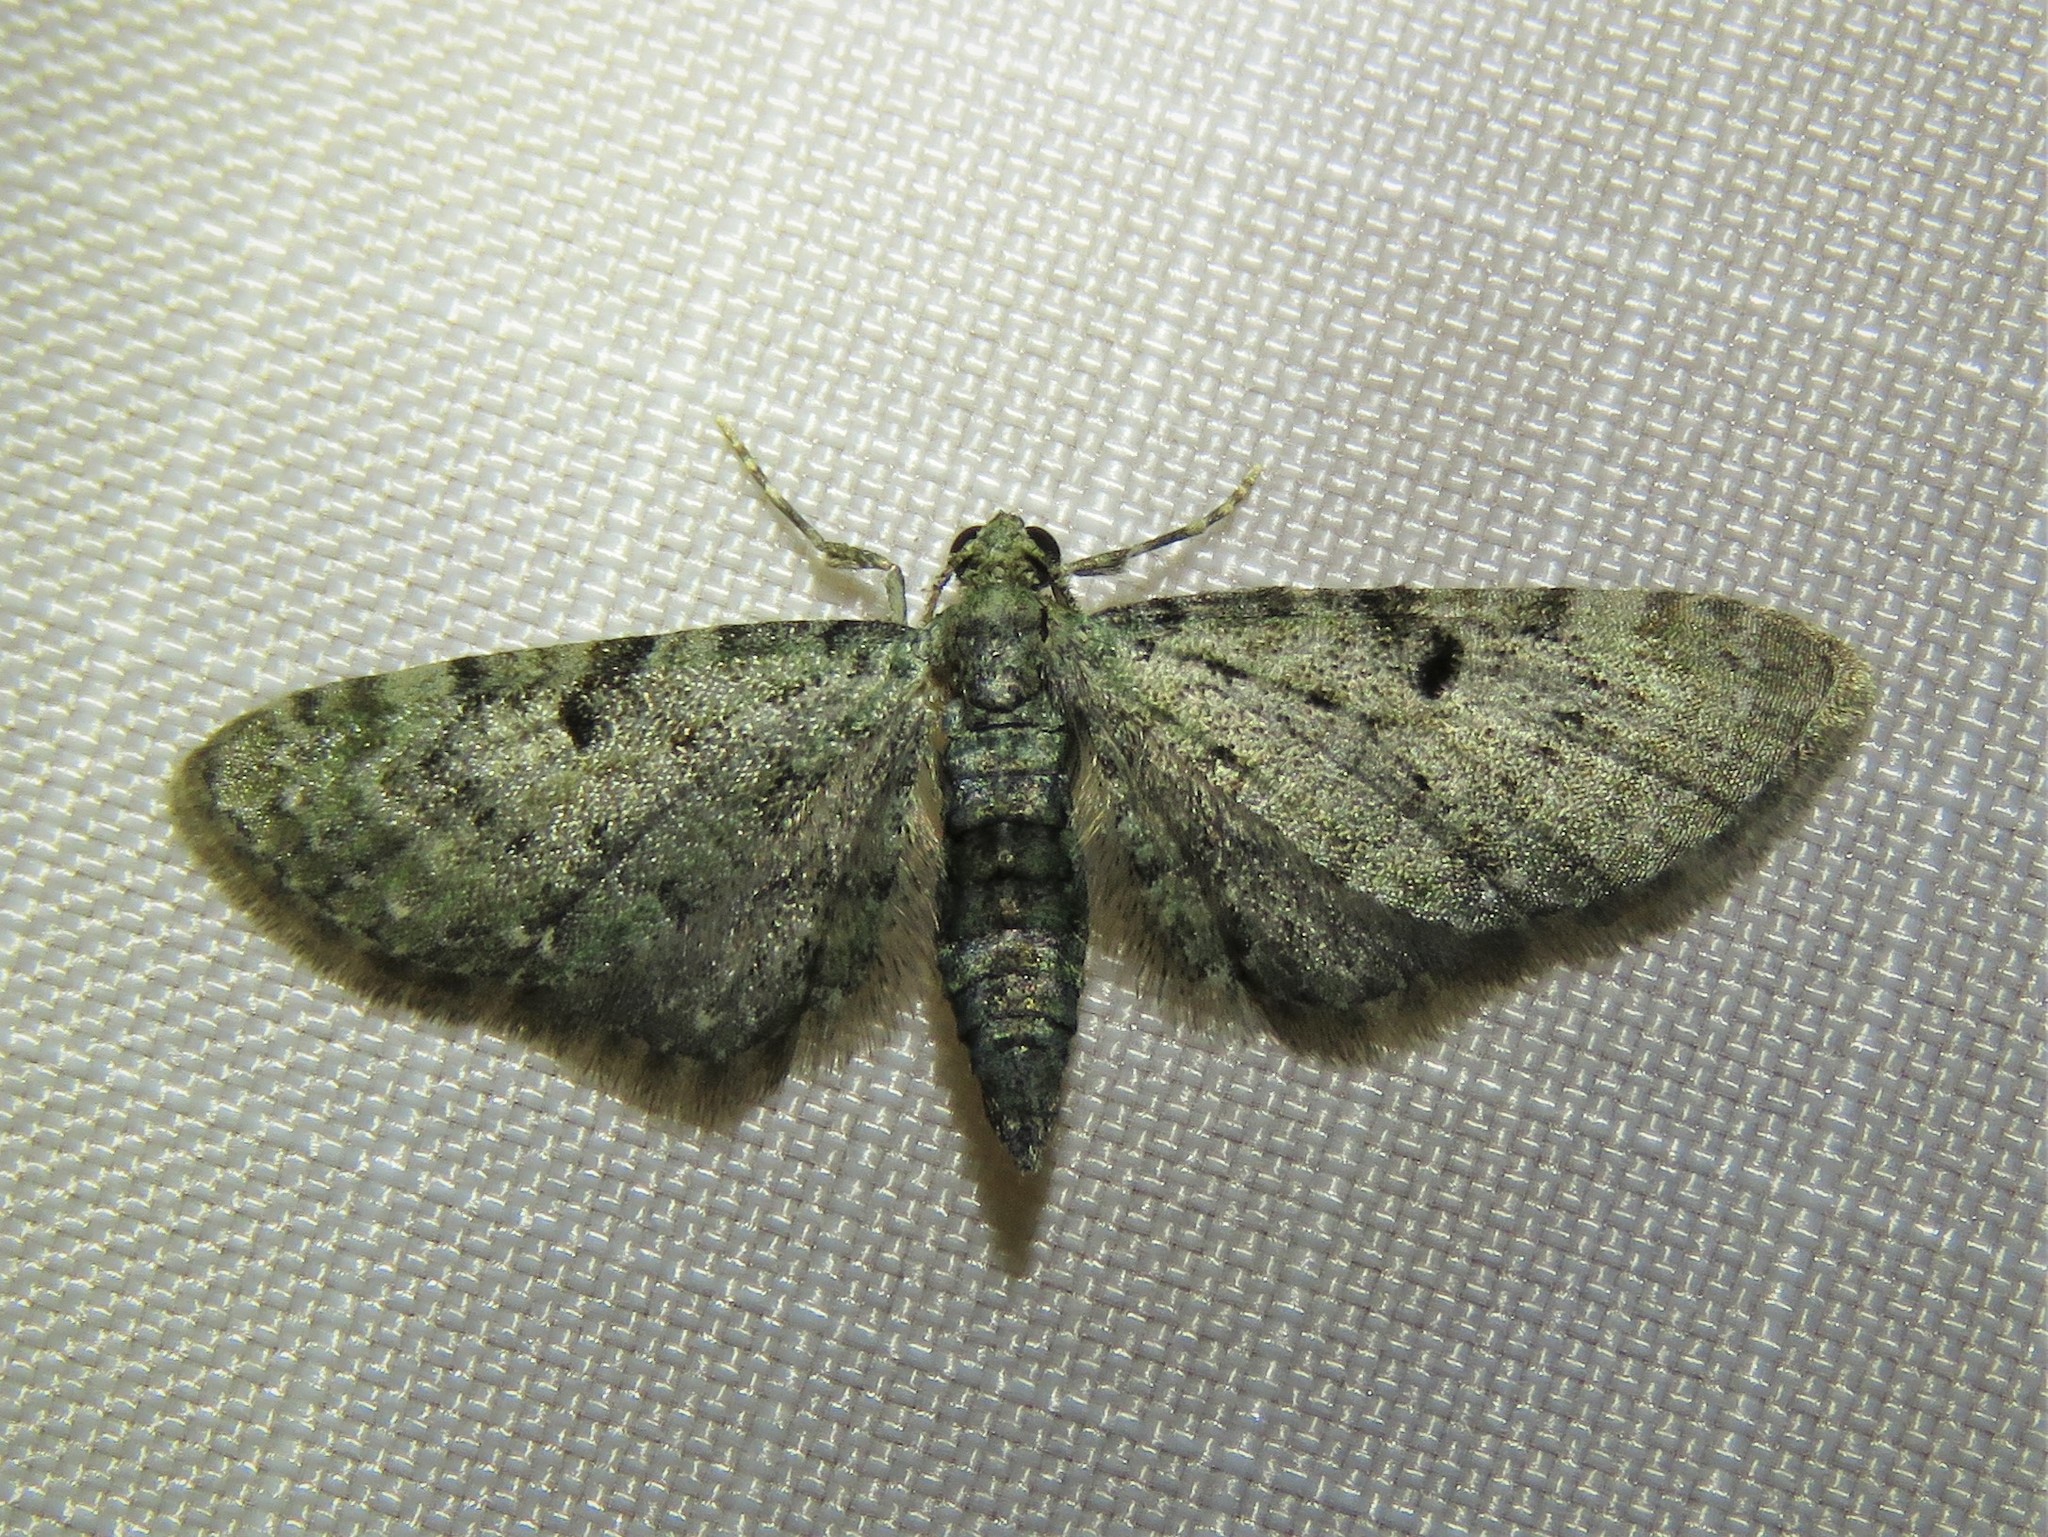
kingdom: Animalia
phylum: Arthropoda
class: Insecta
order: Lepidoptera
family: Geometridae
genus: Eupithecia
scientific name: Eupithecia miserulata
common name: Common eupithecia
